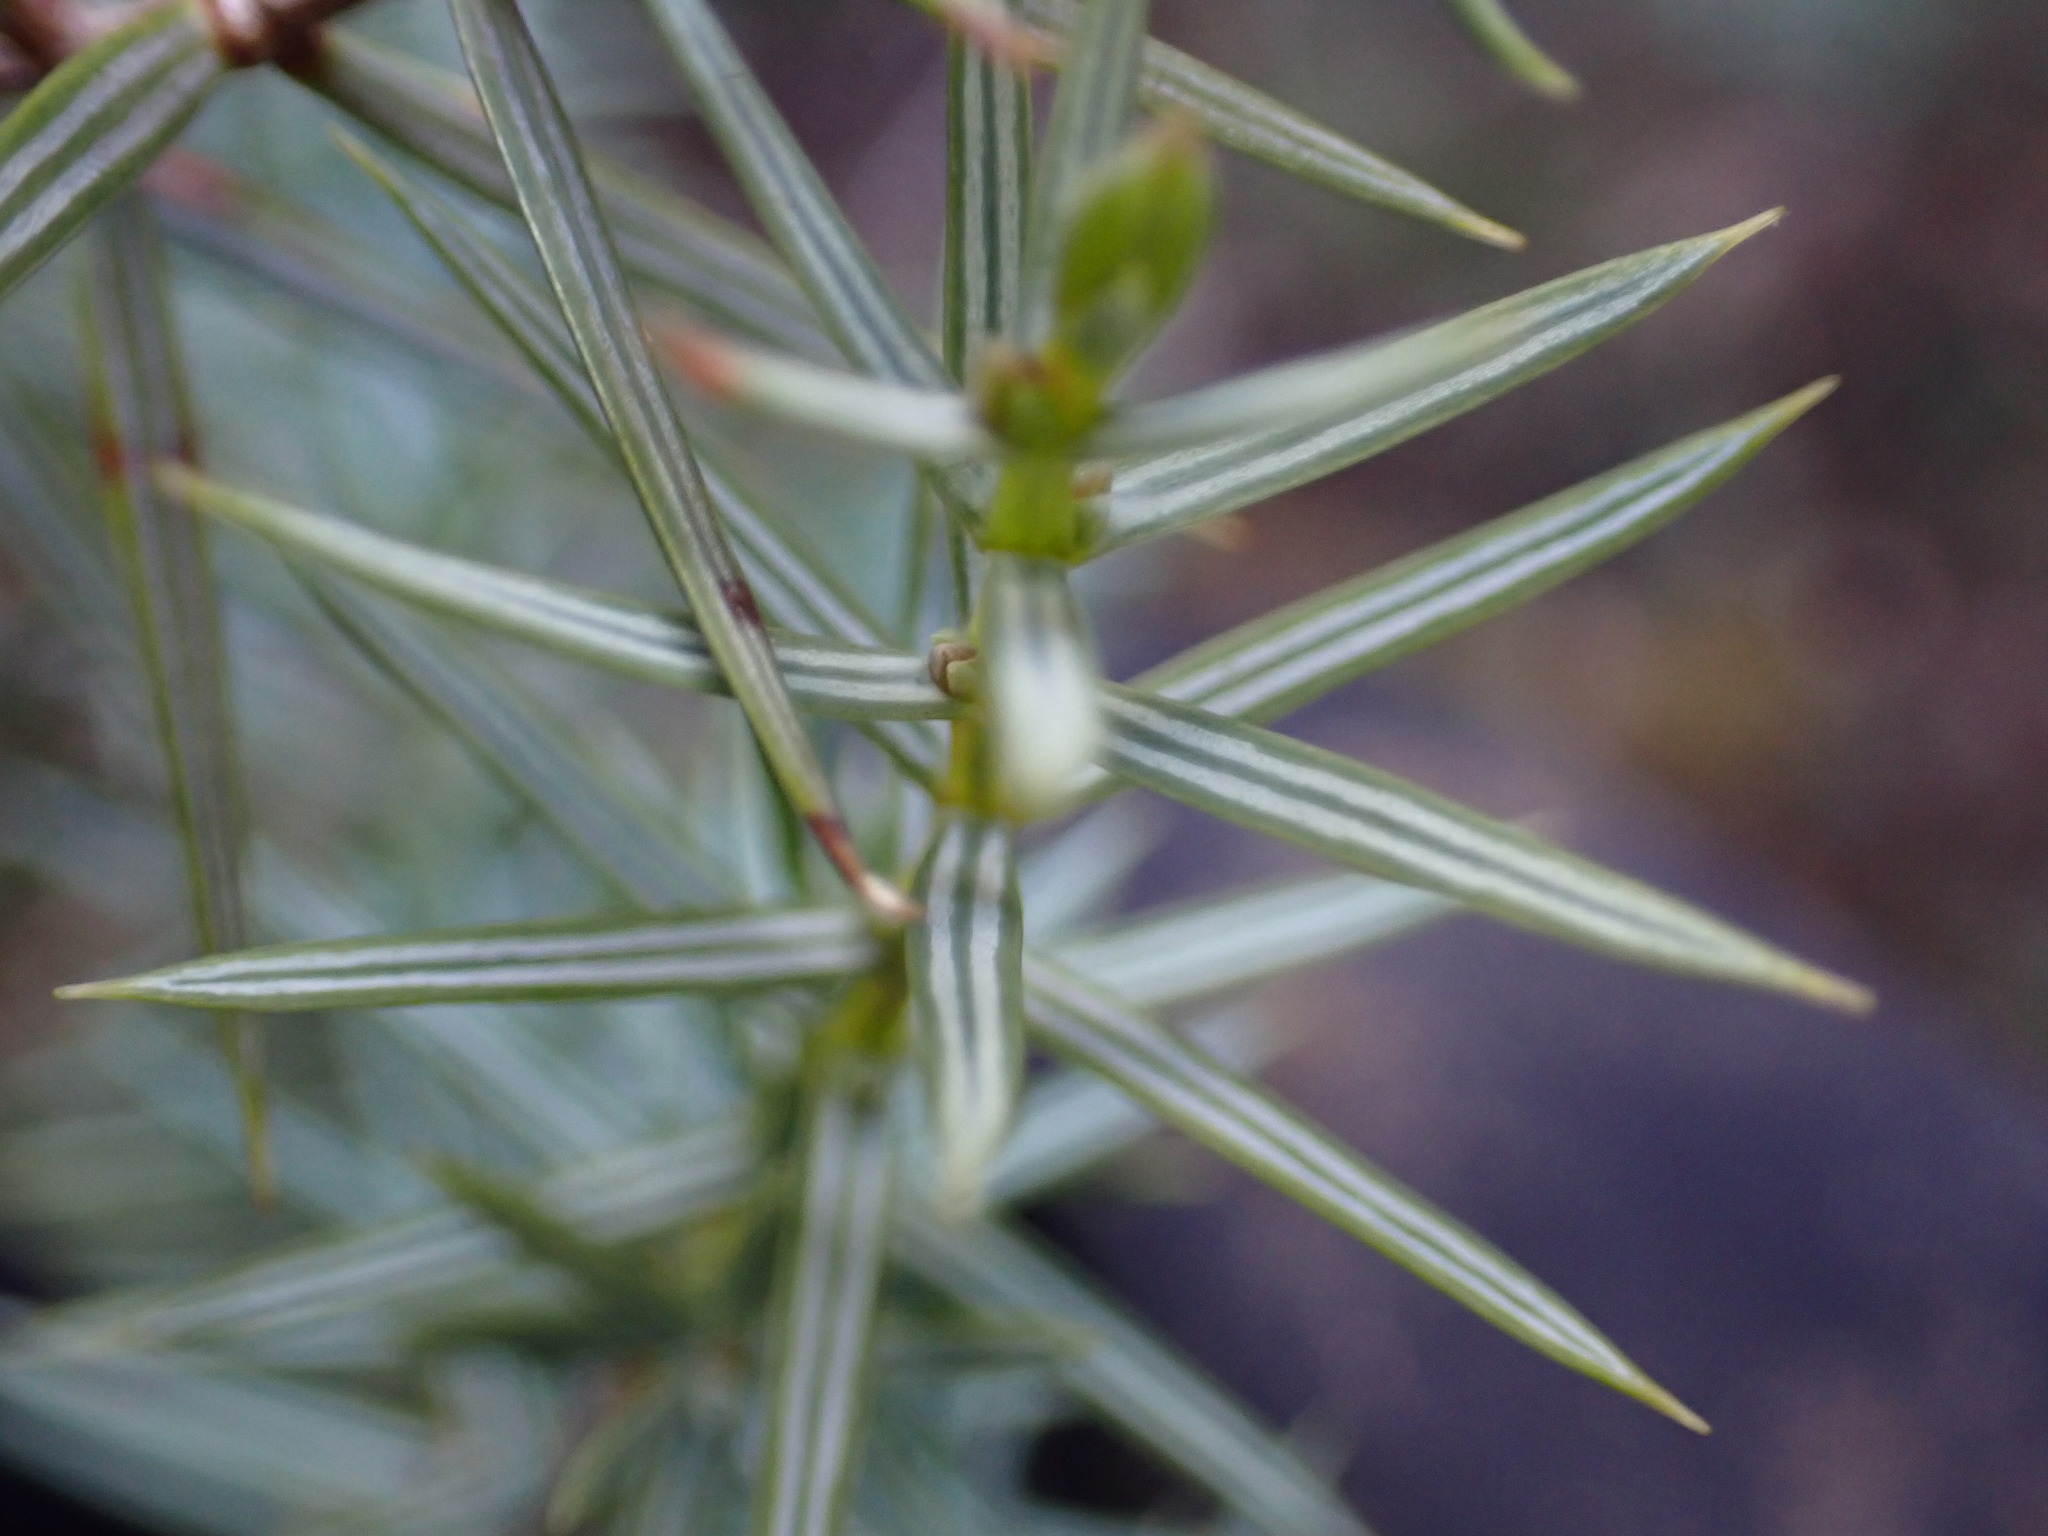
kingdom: Plantae
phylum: Tracheophyta
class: Pinopsida
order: Pinales
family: Cupressaceae
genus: Juniperus
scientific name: Juniperus oxycedrus
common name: Prickly juniper
